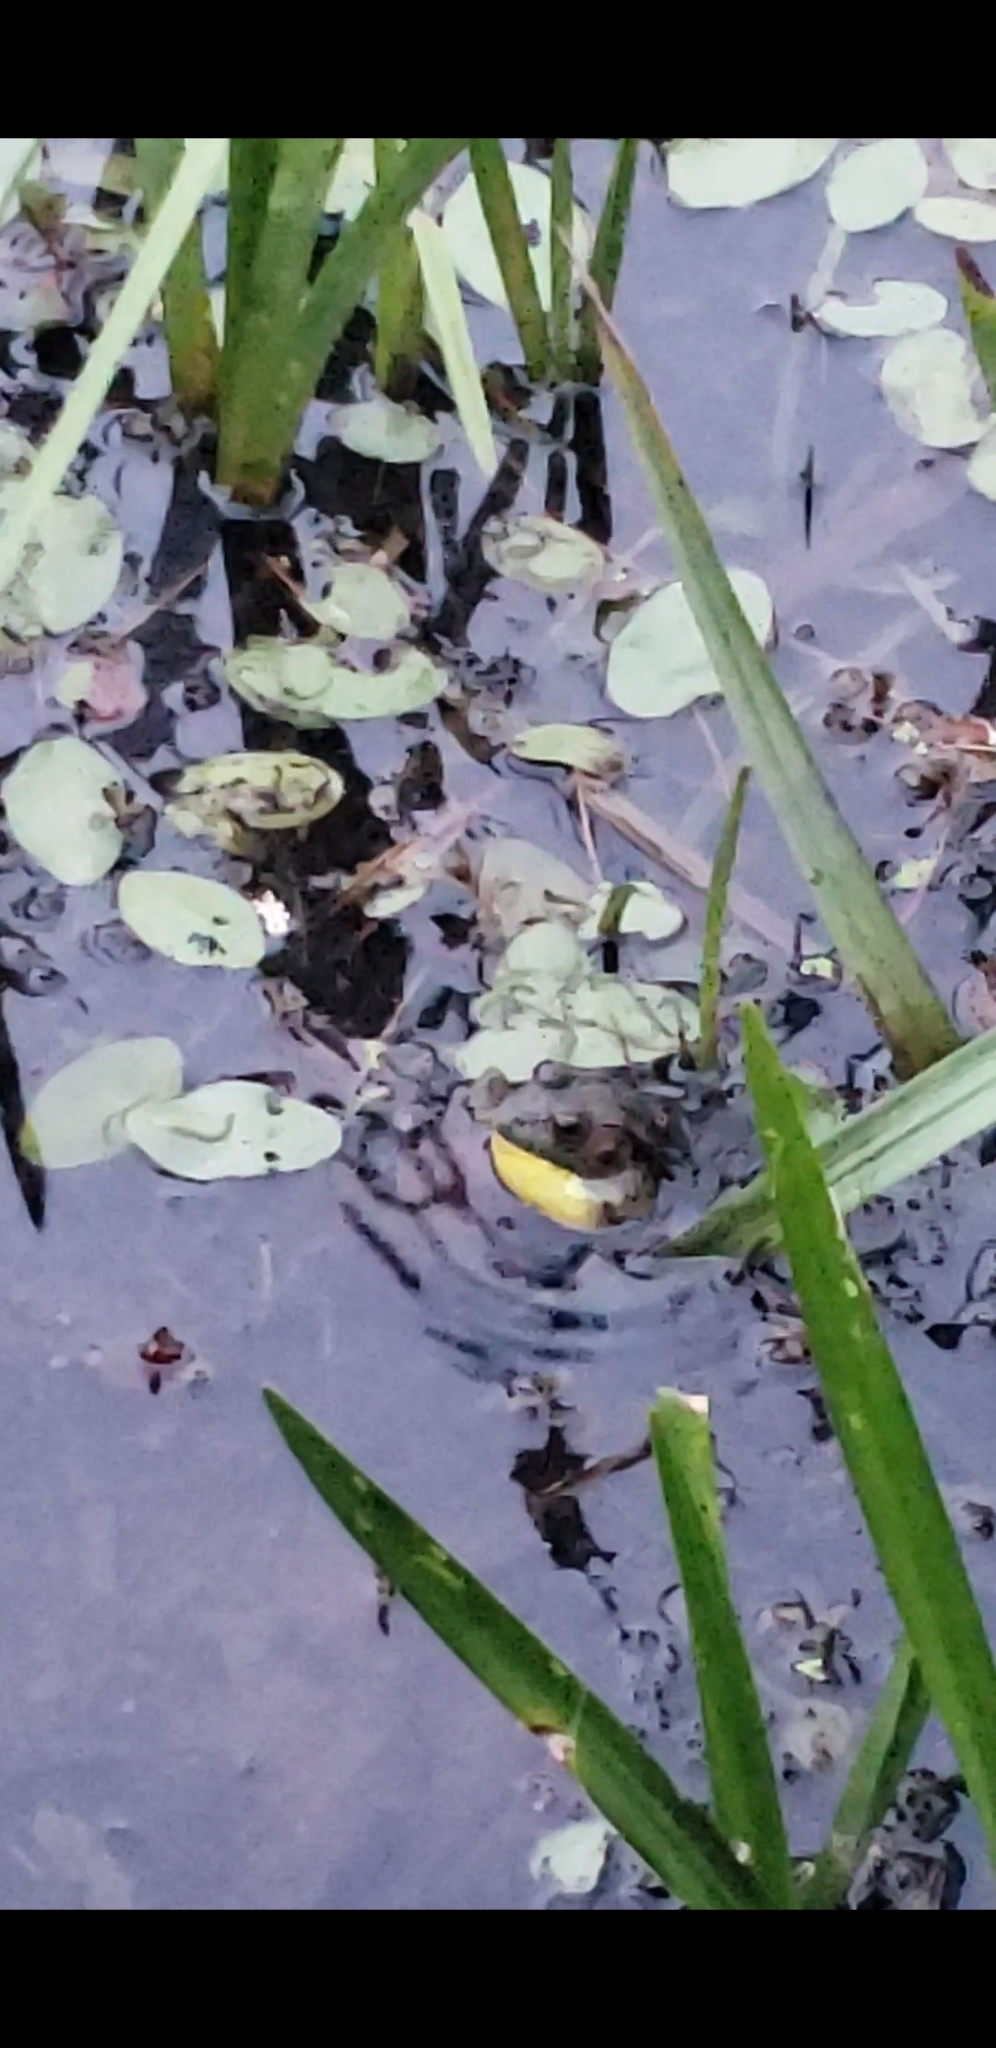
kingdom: Animalia
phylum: Chordata
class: Amphibia
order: Anura
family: Ranidae
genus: Lithobates
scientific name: Lithobates clamitans
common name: Green frog
